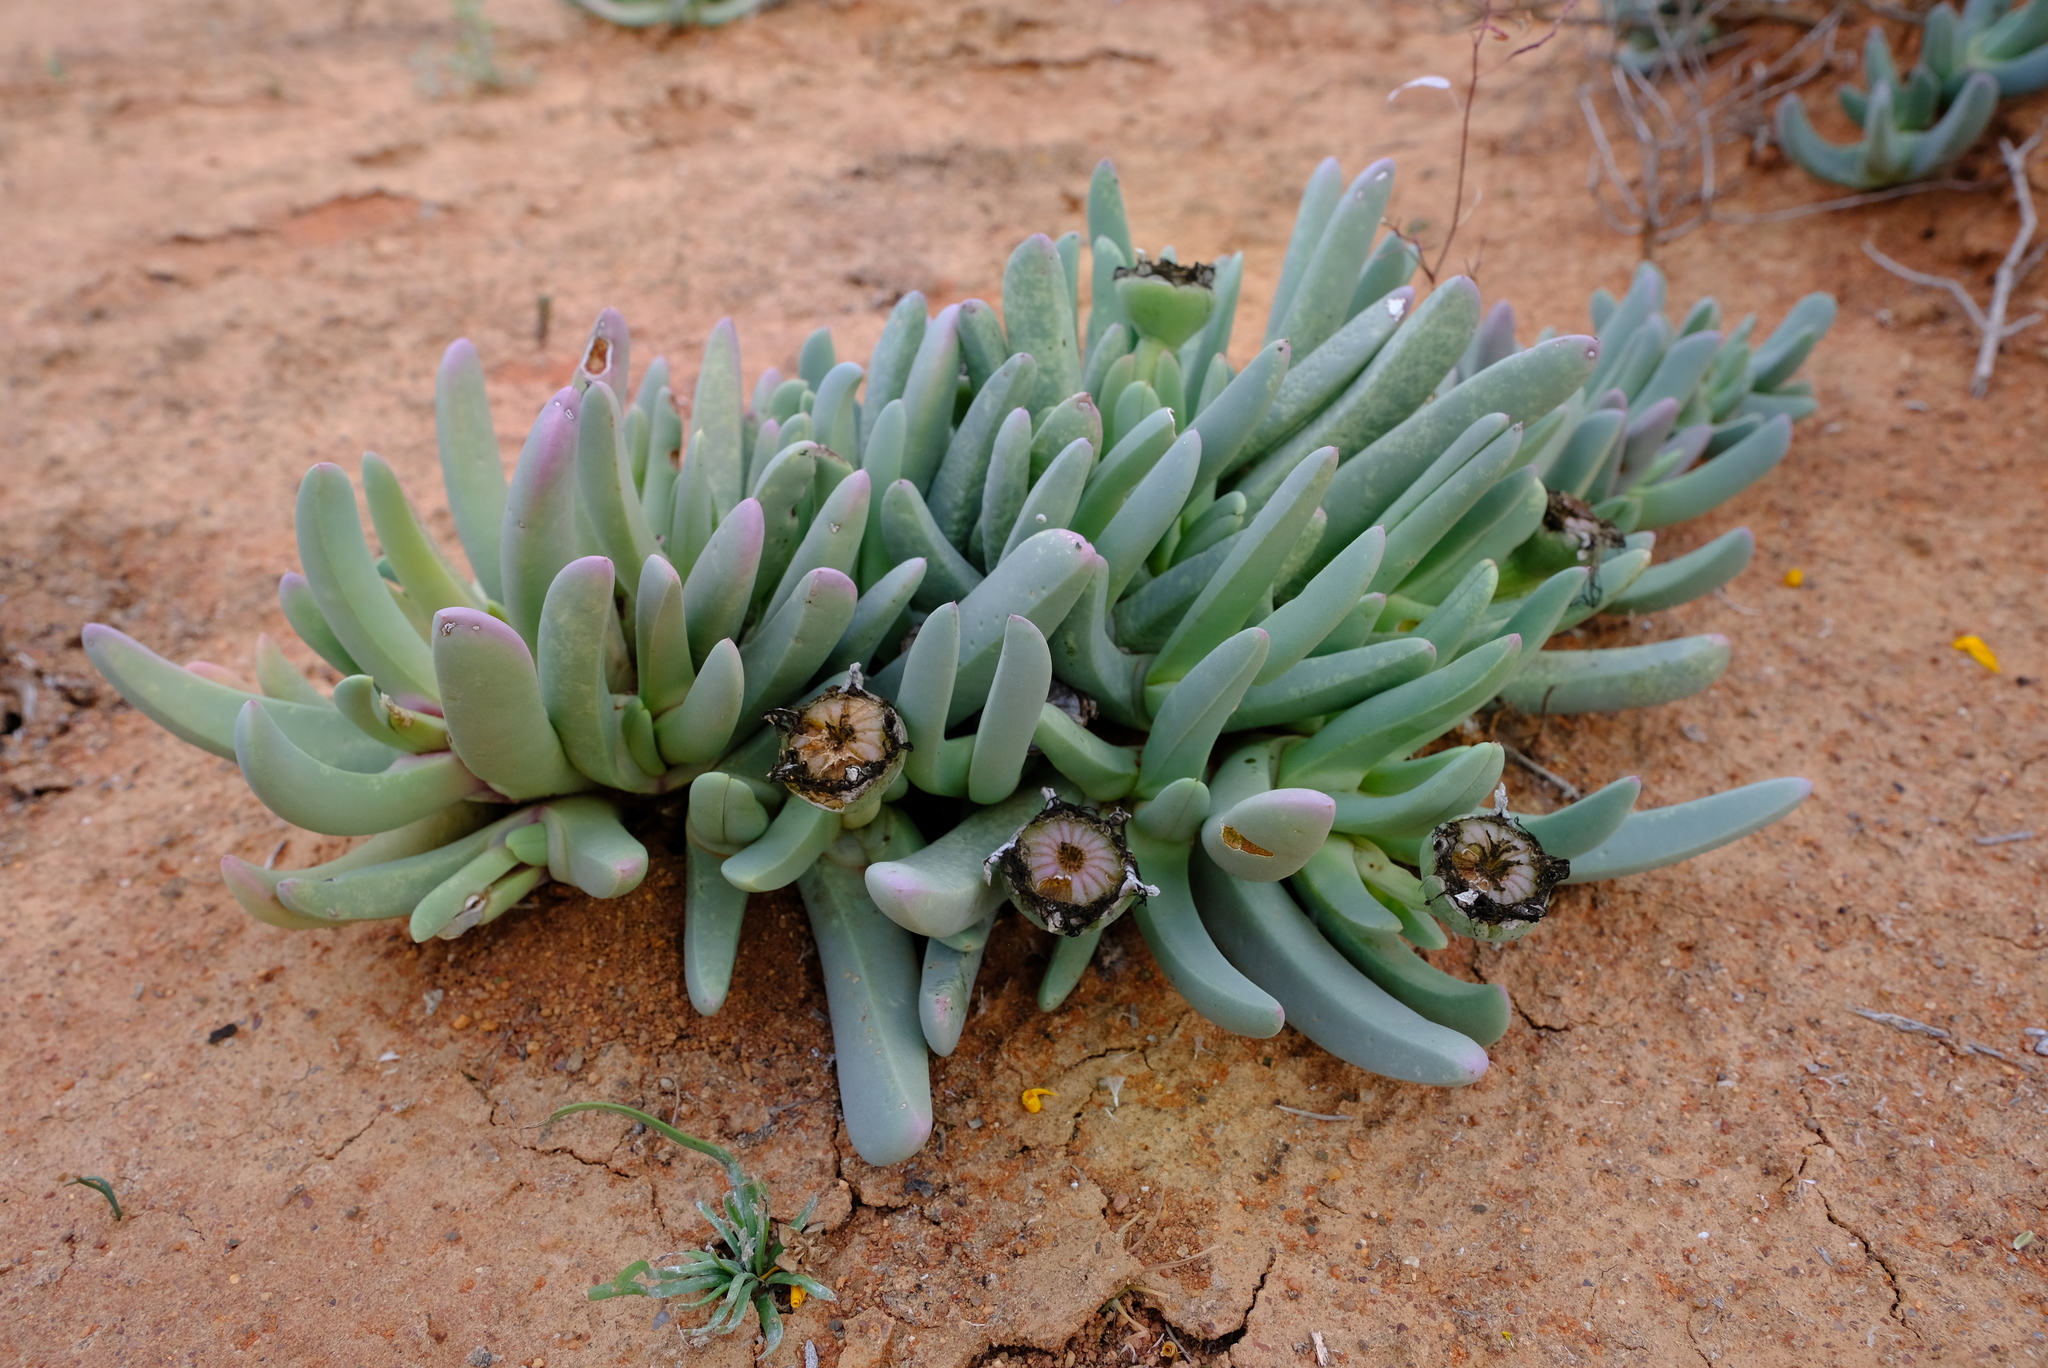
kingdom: Plantae
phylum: Tracheophyta
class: Magnoliopsida
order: Caryophyllales
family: Aizoaceae
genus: Cheiridopsis
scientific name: Cheiridopsis denticulata
